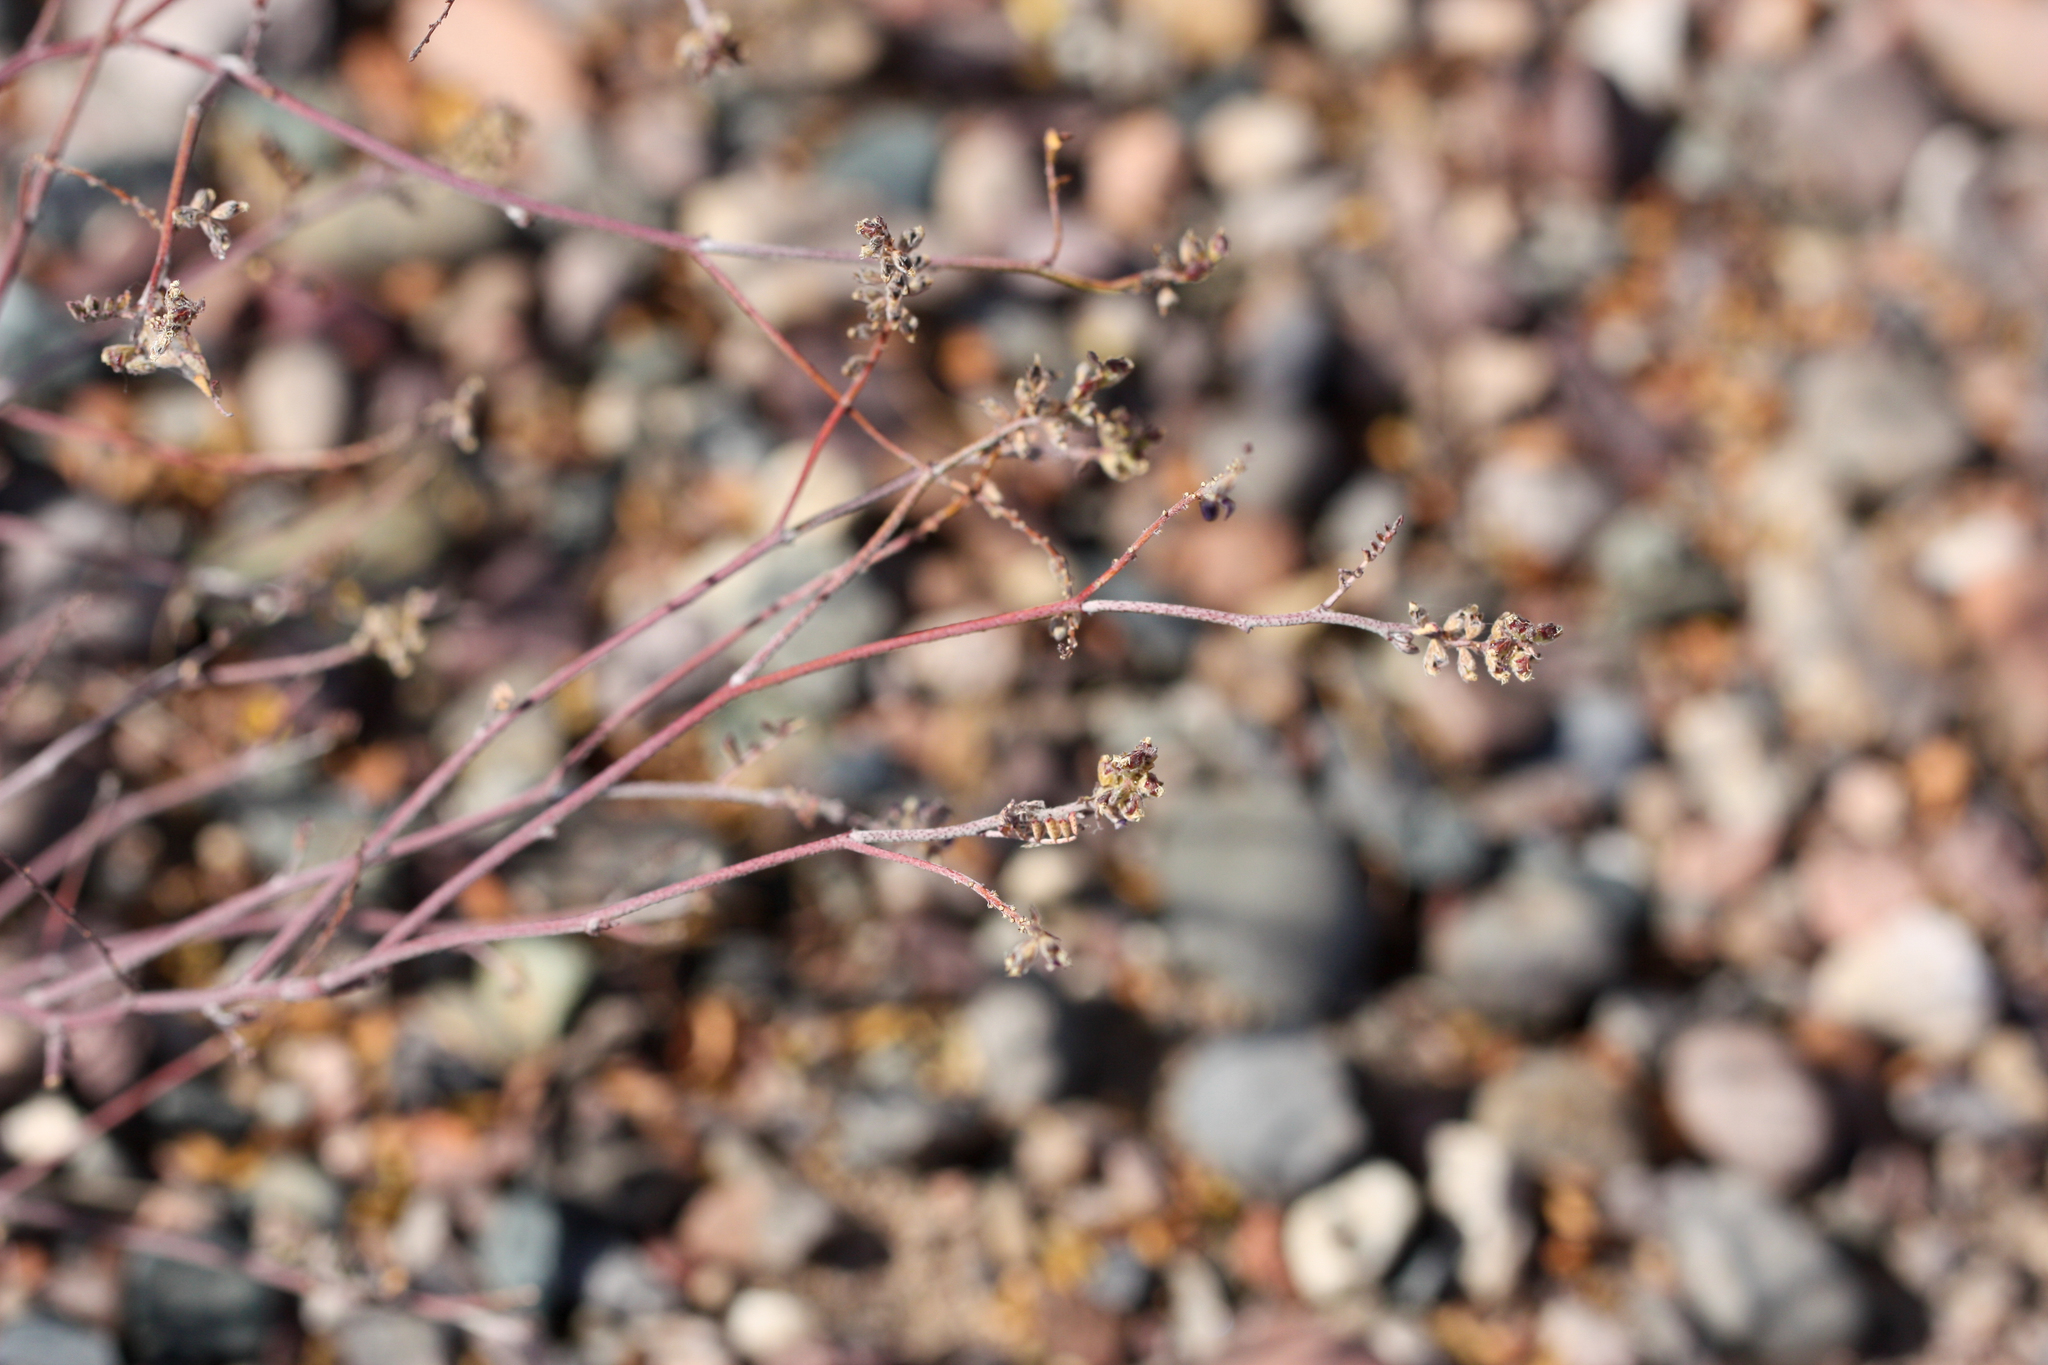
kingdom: Plantae
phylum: Tracheophyta
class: Magnoliopsida
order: Fabales
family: Fabaceae
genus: Marina
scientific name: Marina parryi
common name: Parry's marina
